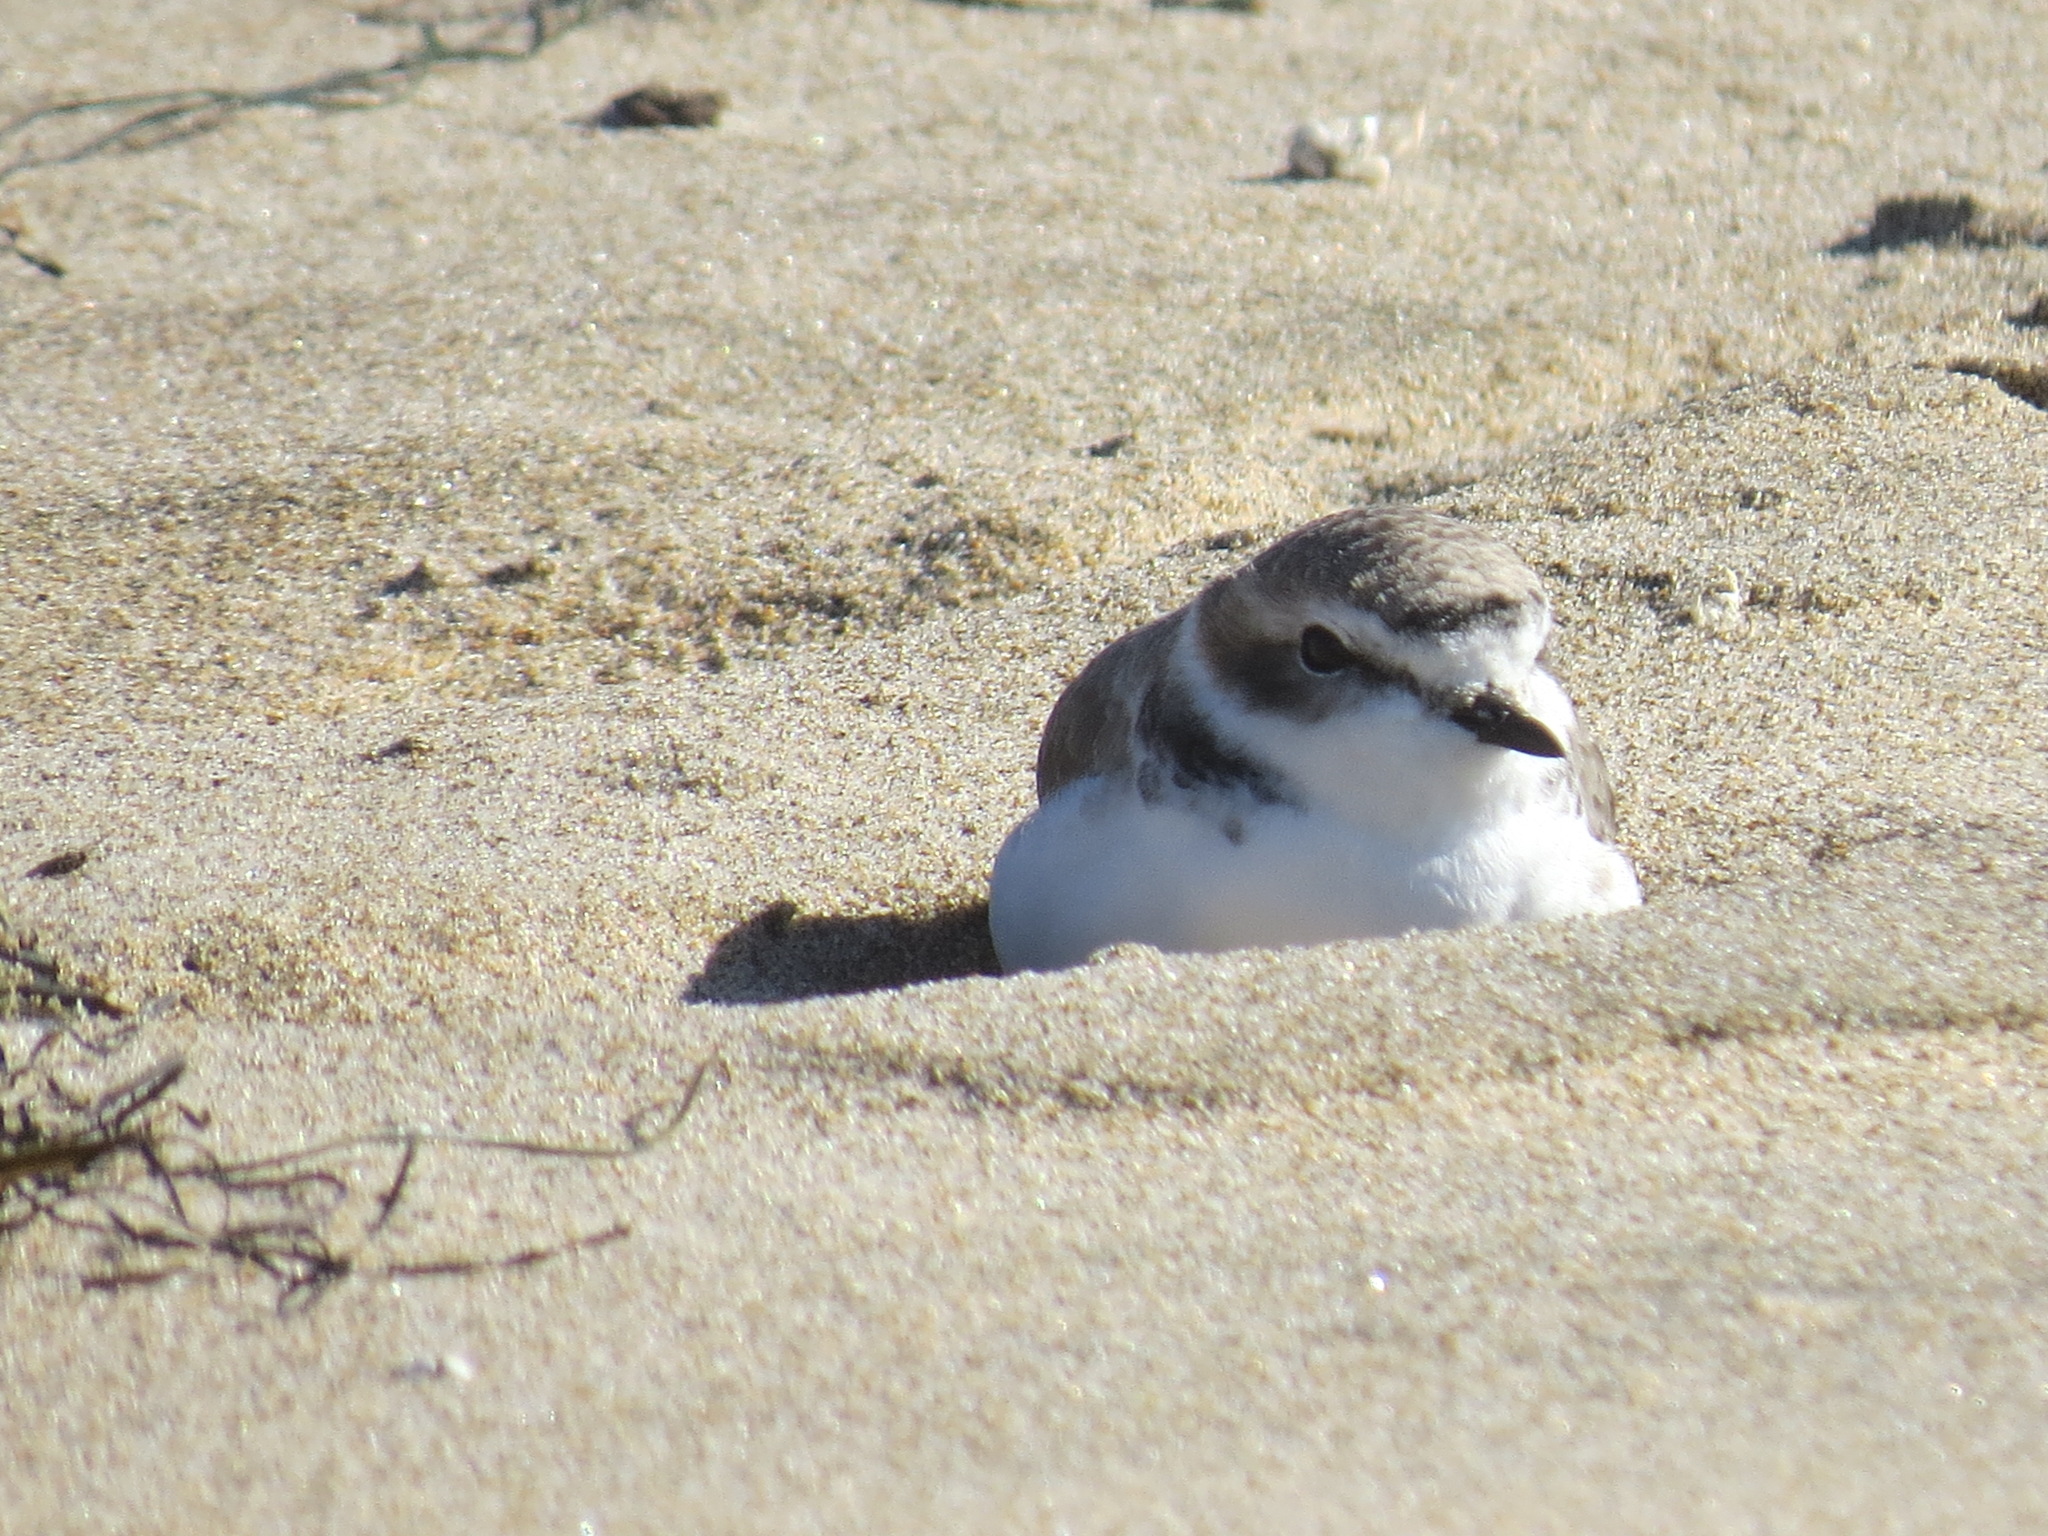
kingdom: Animalia
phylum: Chordata
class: Aves
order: Charadriiformes
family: Charadriidae
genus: Anarhynchus
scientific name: Anarhynchus
